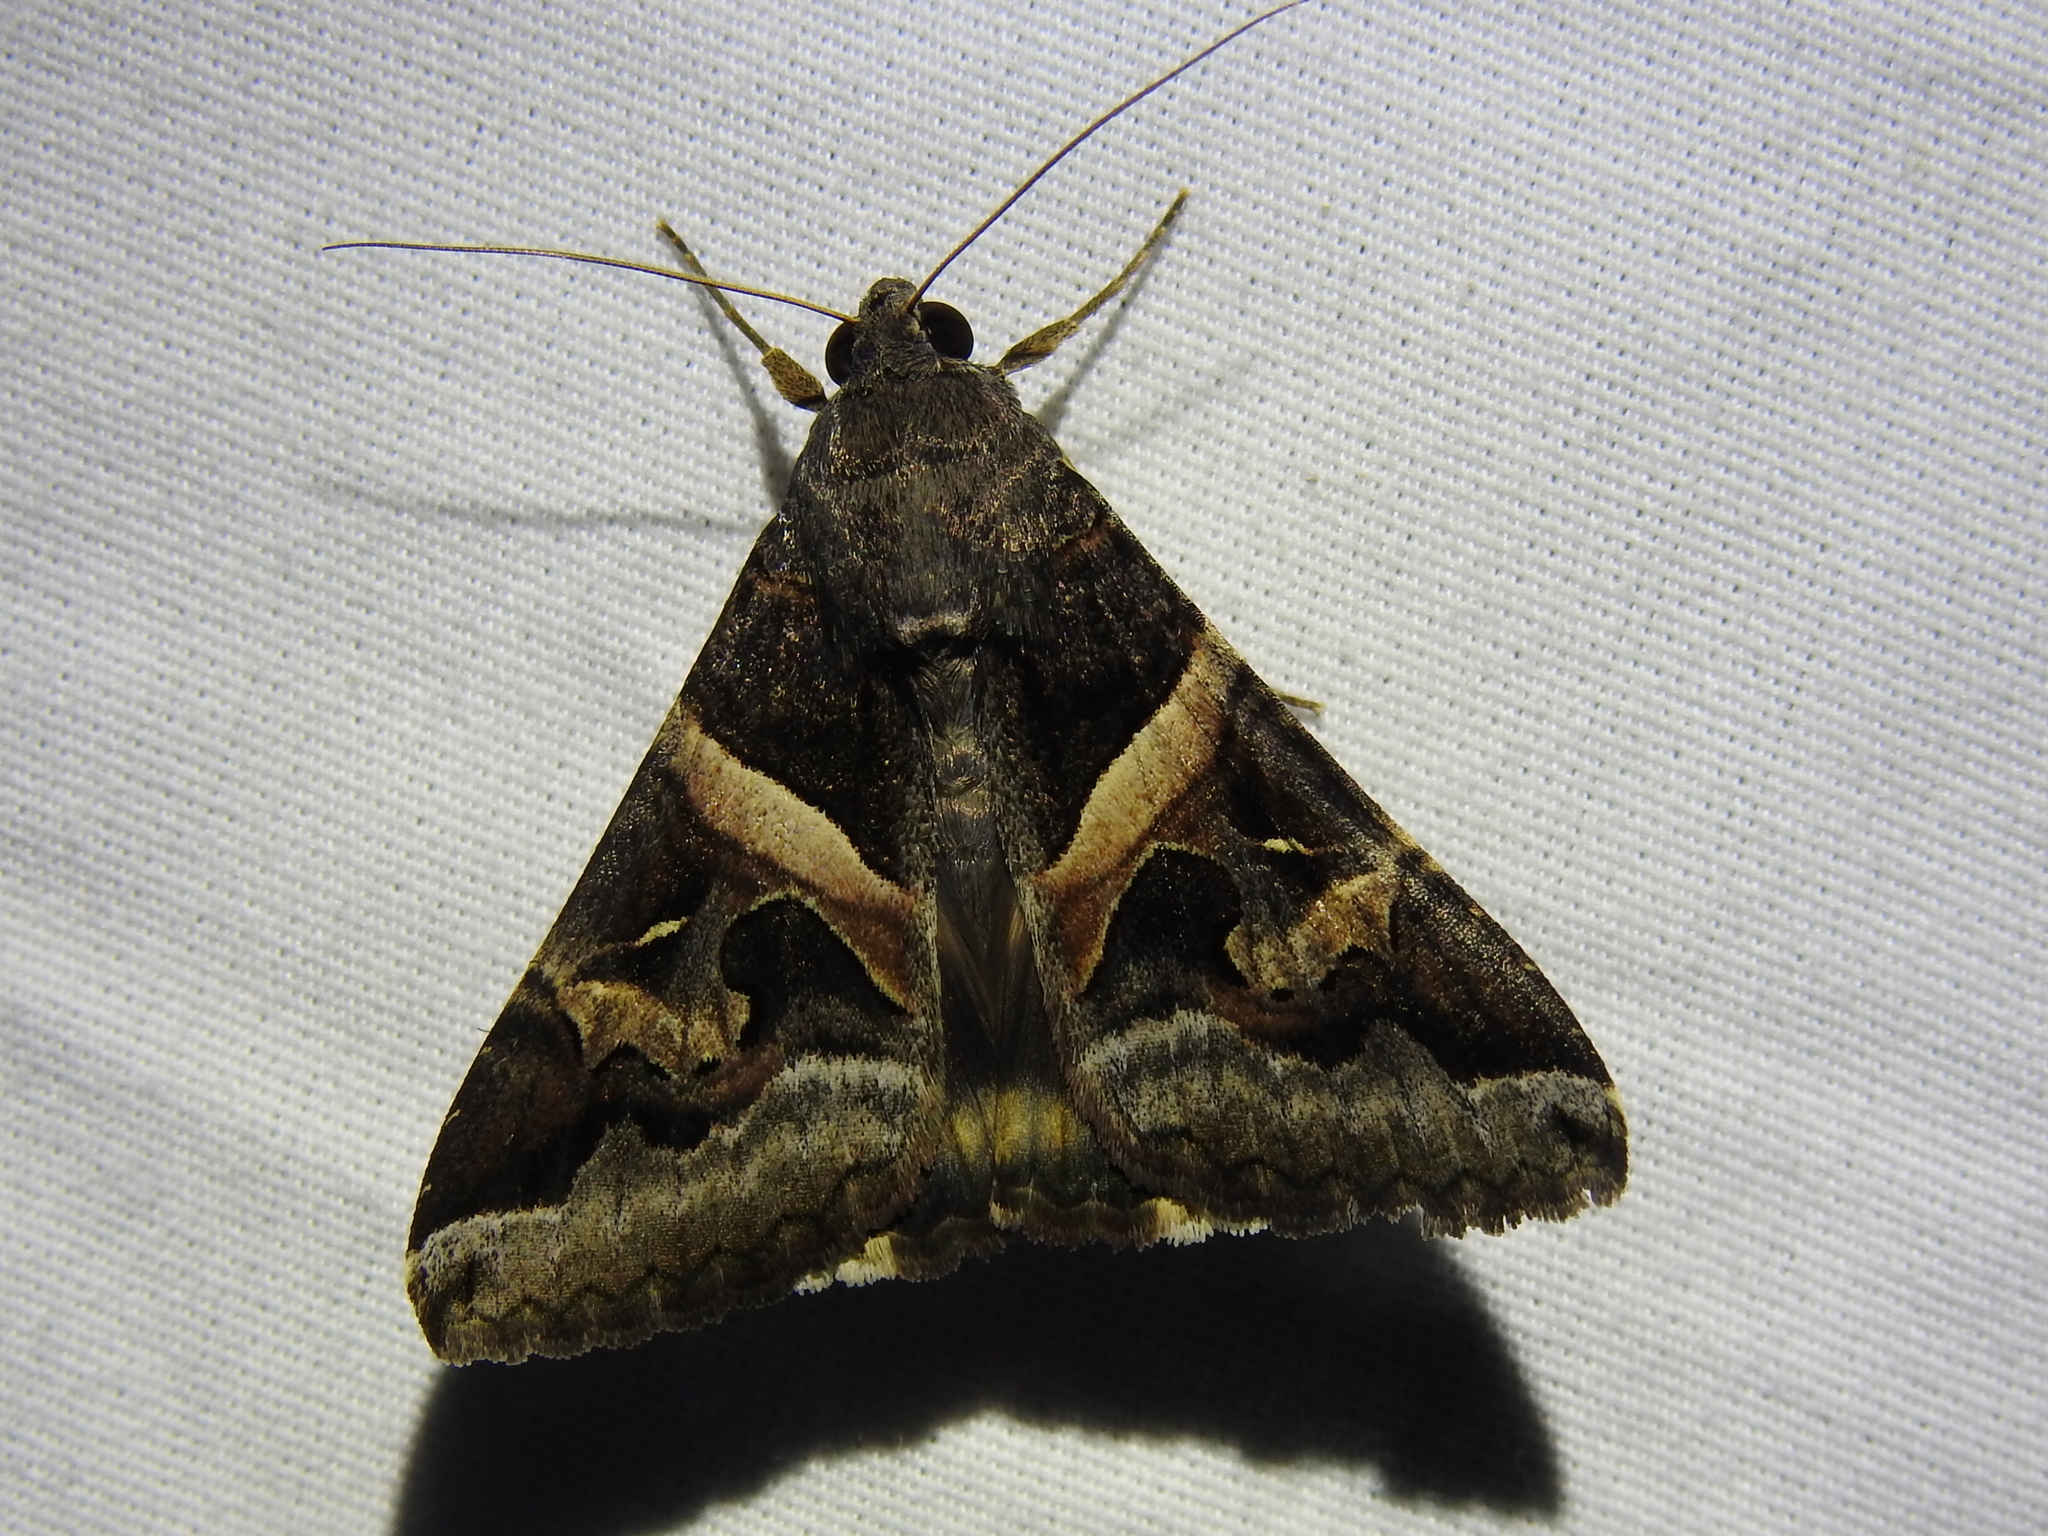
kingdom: Animalia
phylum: Arthropoda
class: Insecta
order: Lepidoptera
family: Erebidae
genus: Melipotis
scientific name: Melipotis indomita
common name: Moth
